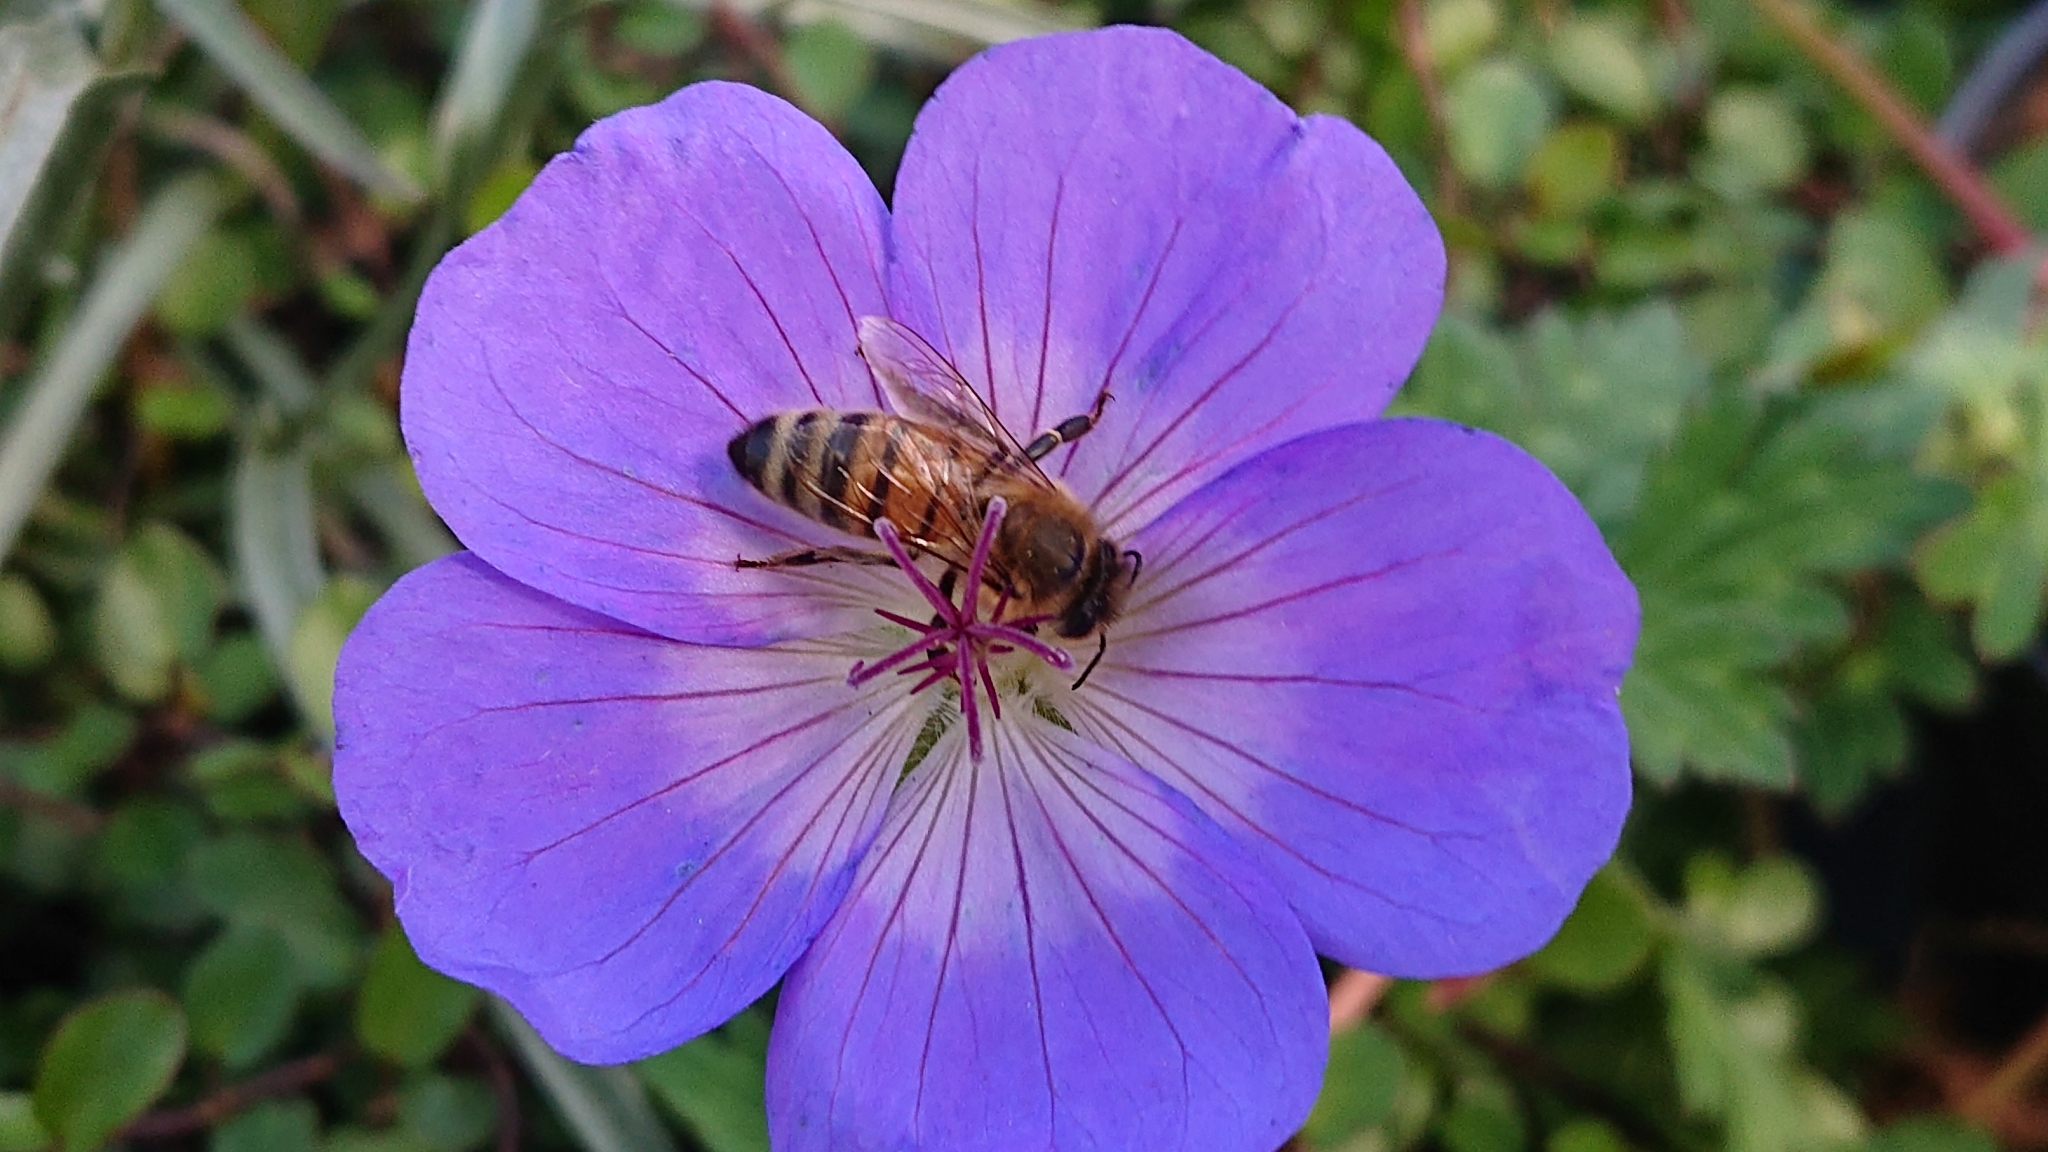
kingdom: Animalia
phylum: Arthropoda
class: Insecta
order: Hymenoptera
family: Apidae
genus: Apis
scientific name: Apis mellifera
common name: Honey bee
